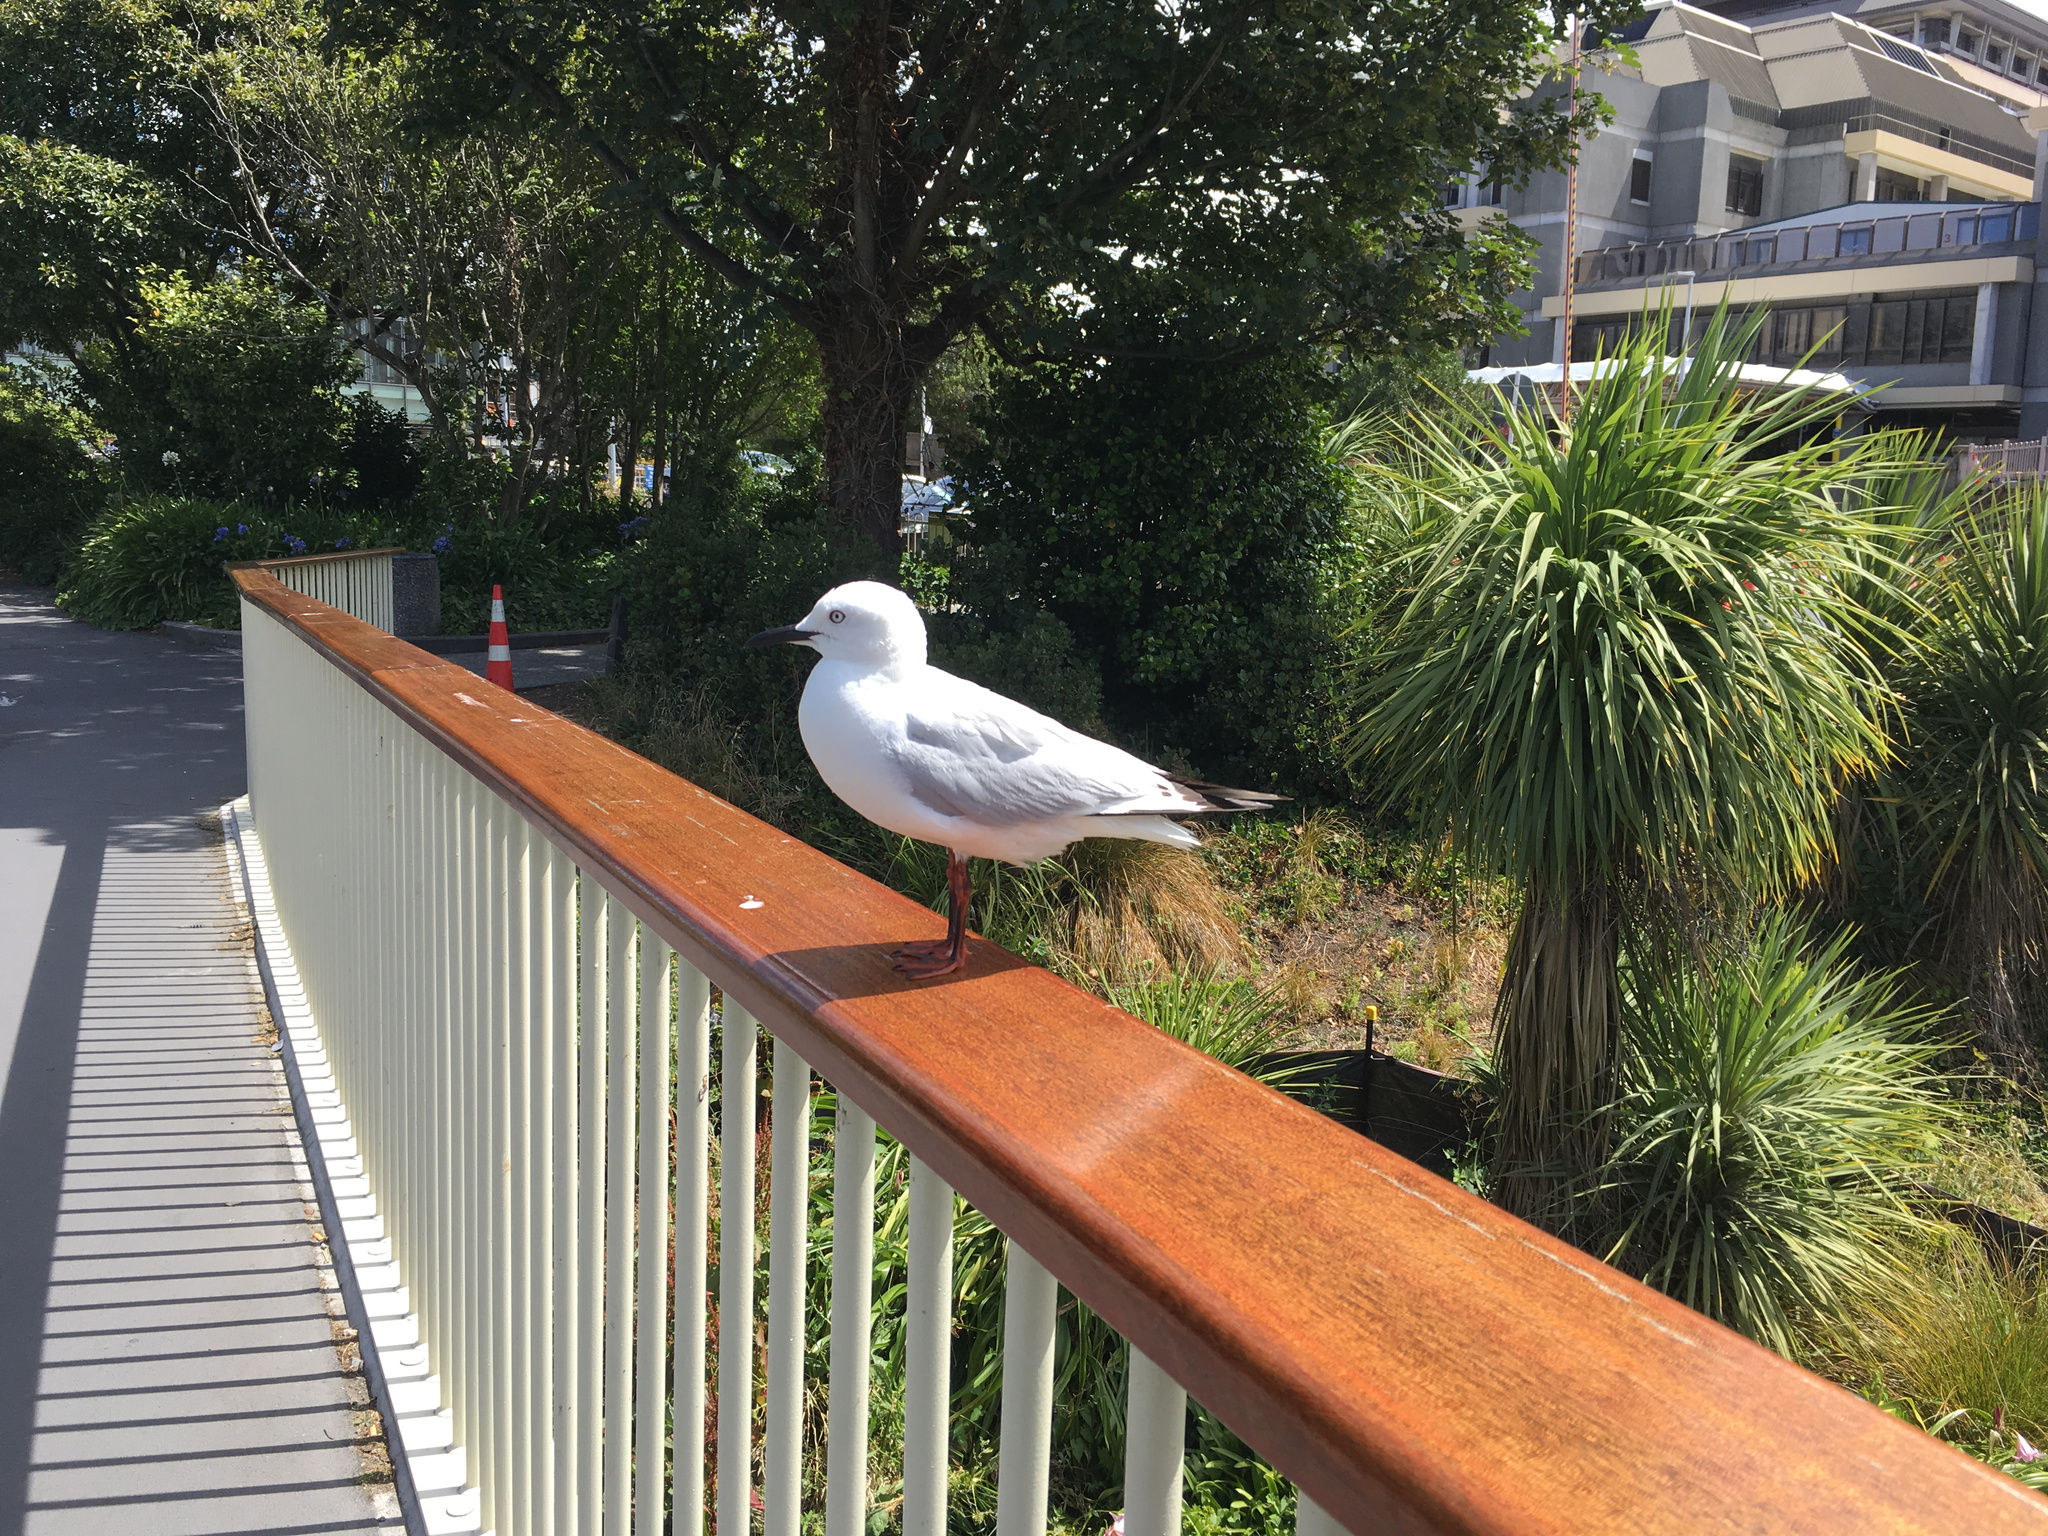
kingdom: Animalia
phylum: Chordata
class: Aves
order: Charadriiformes
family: Laridae
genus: Chroicocephalus
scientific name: Chroicocephalus bulleri
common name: Black-billed gull
